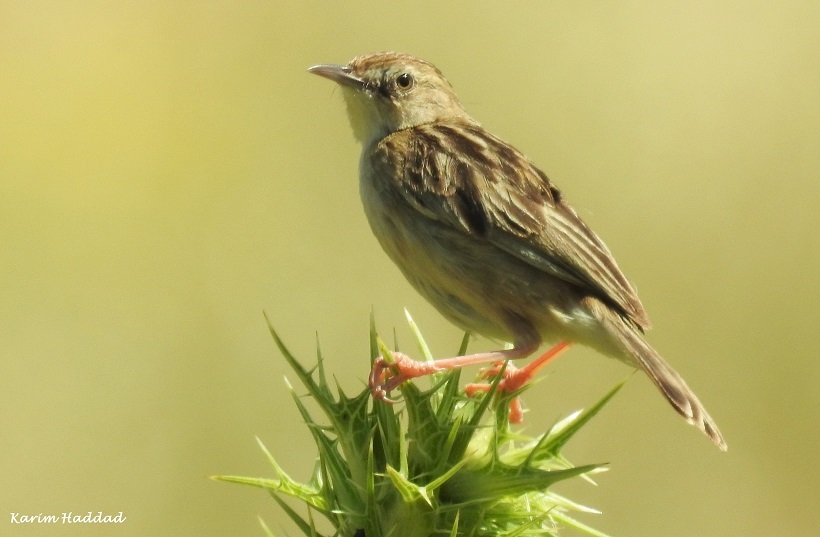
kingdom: Animalia
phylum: Chordata
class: Aves
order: Passeriformes
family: Cisticolidae
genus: Cisticola
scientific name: Cisticola juncidis
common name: Zitting cisticola
